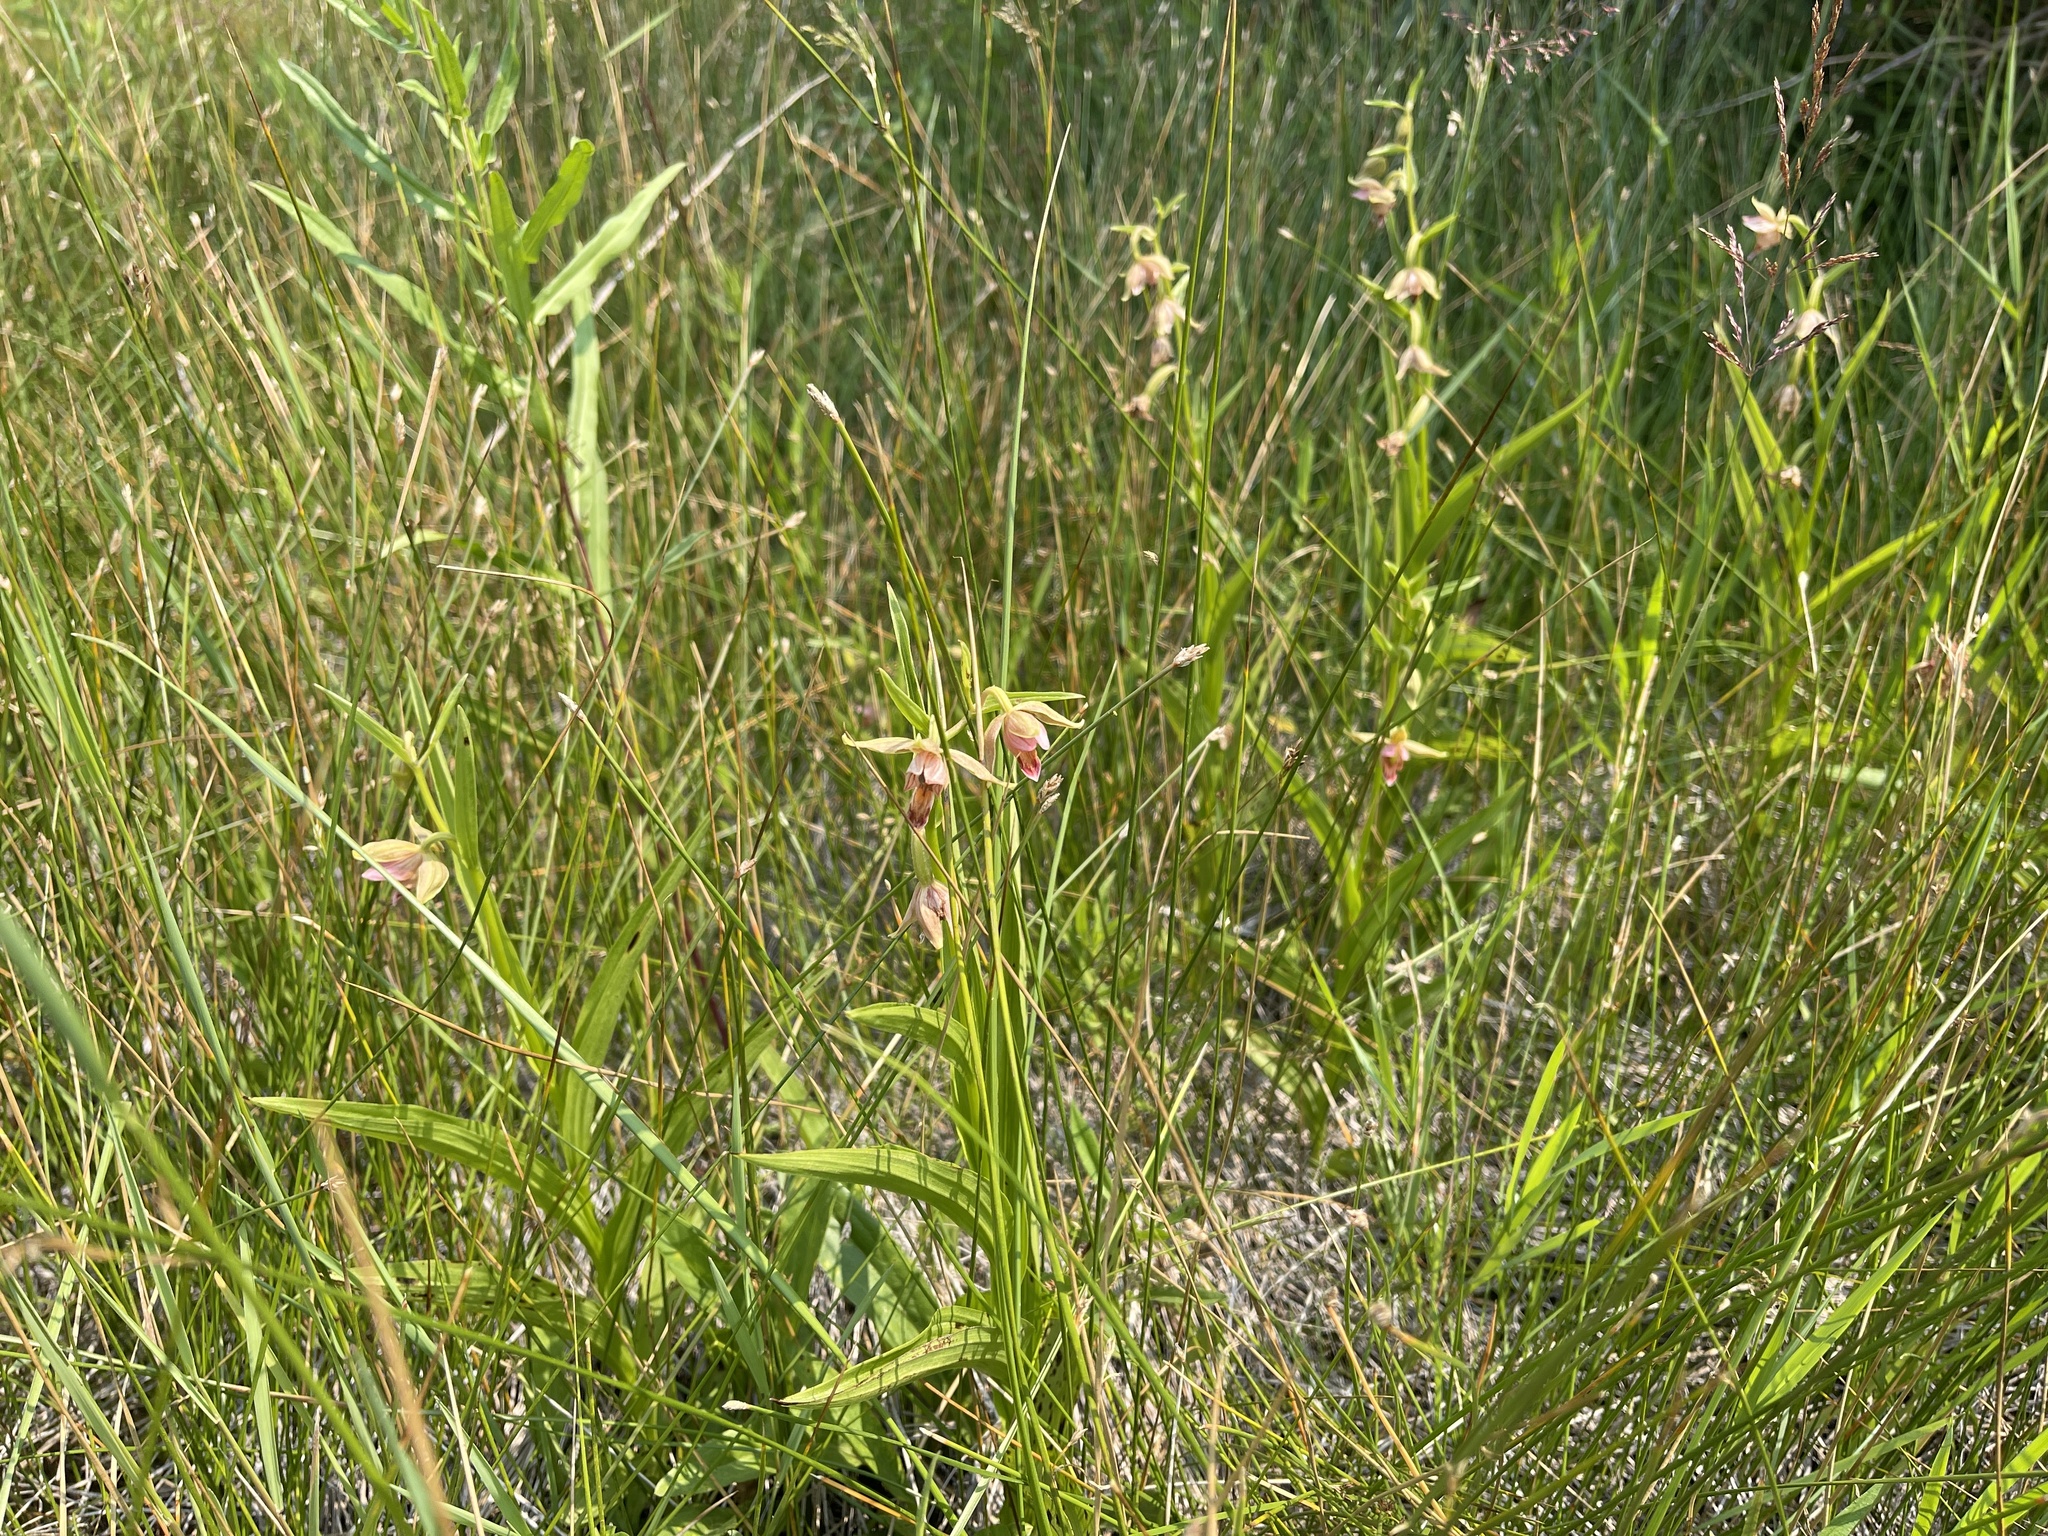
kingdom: Plantae
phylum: Tracheophyta
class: Liliopsida
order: Asparagales
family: Orchidaceae
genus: Epipactis
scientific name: Epipactis gigantea
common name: Chatterbox
